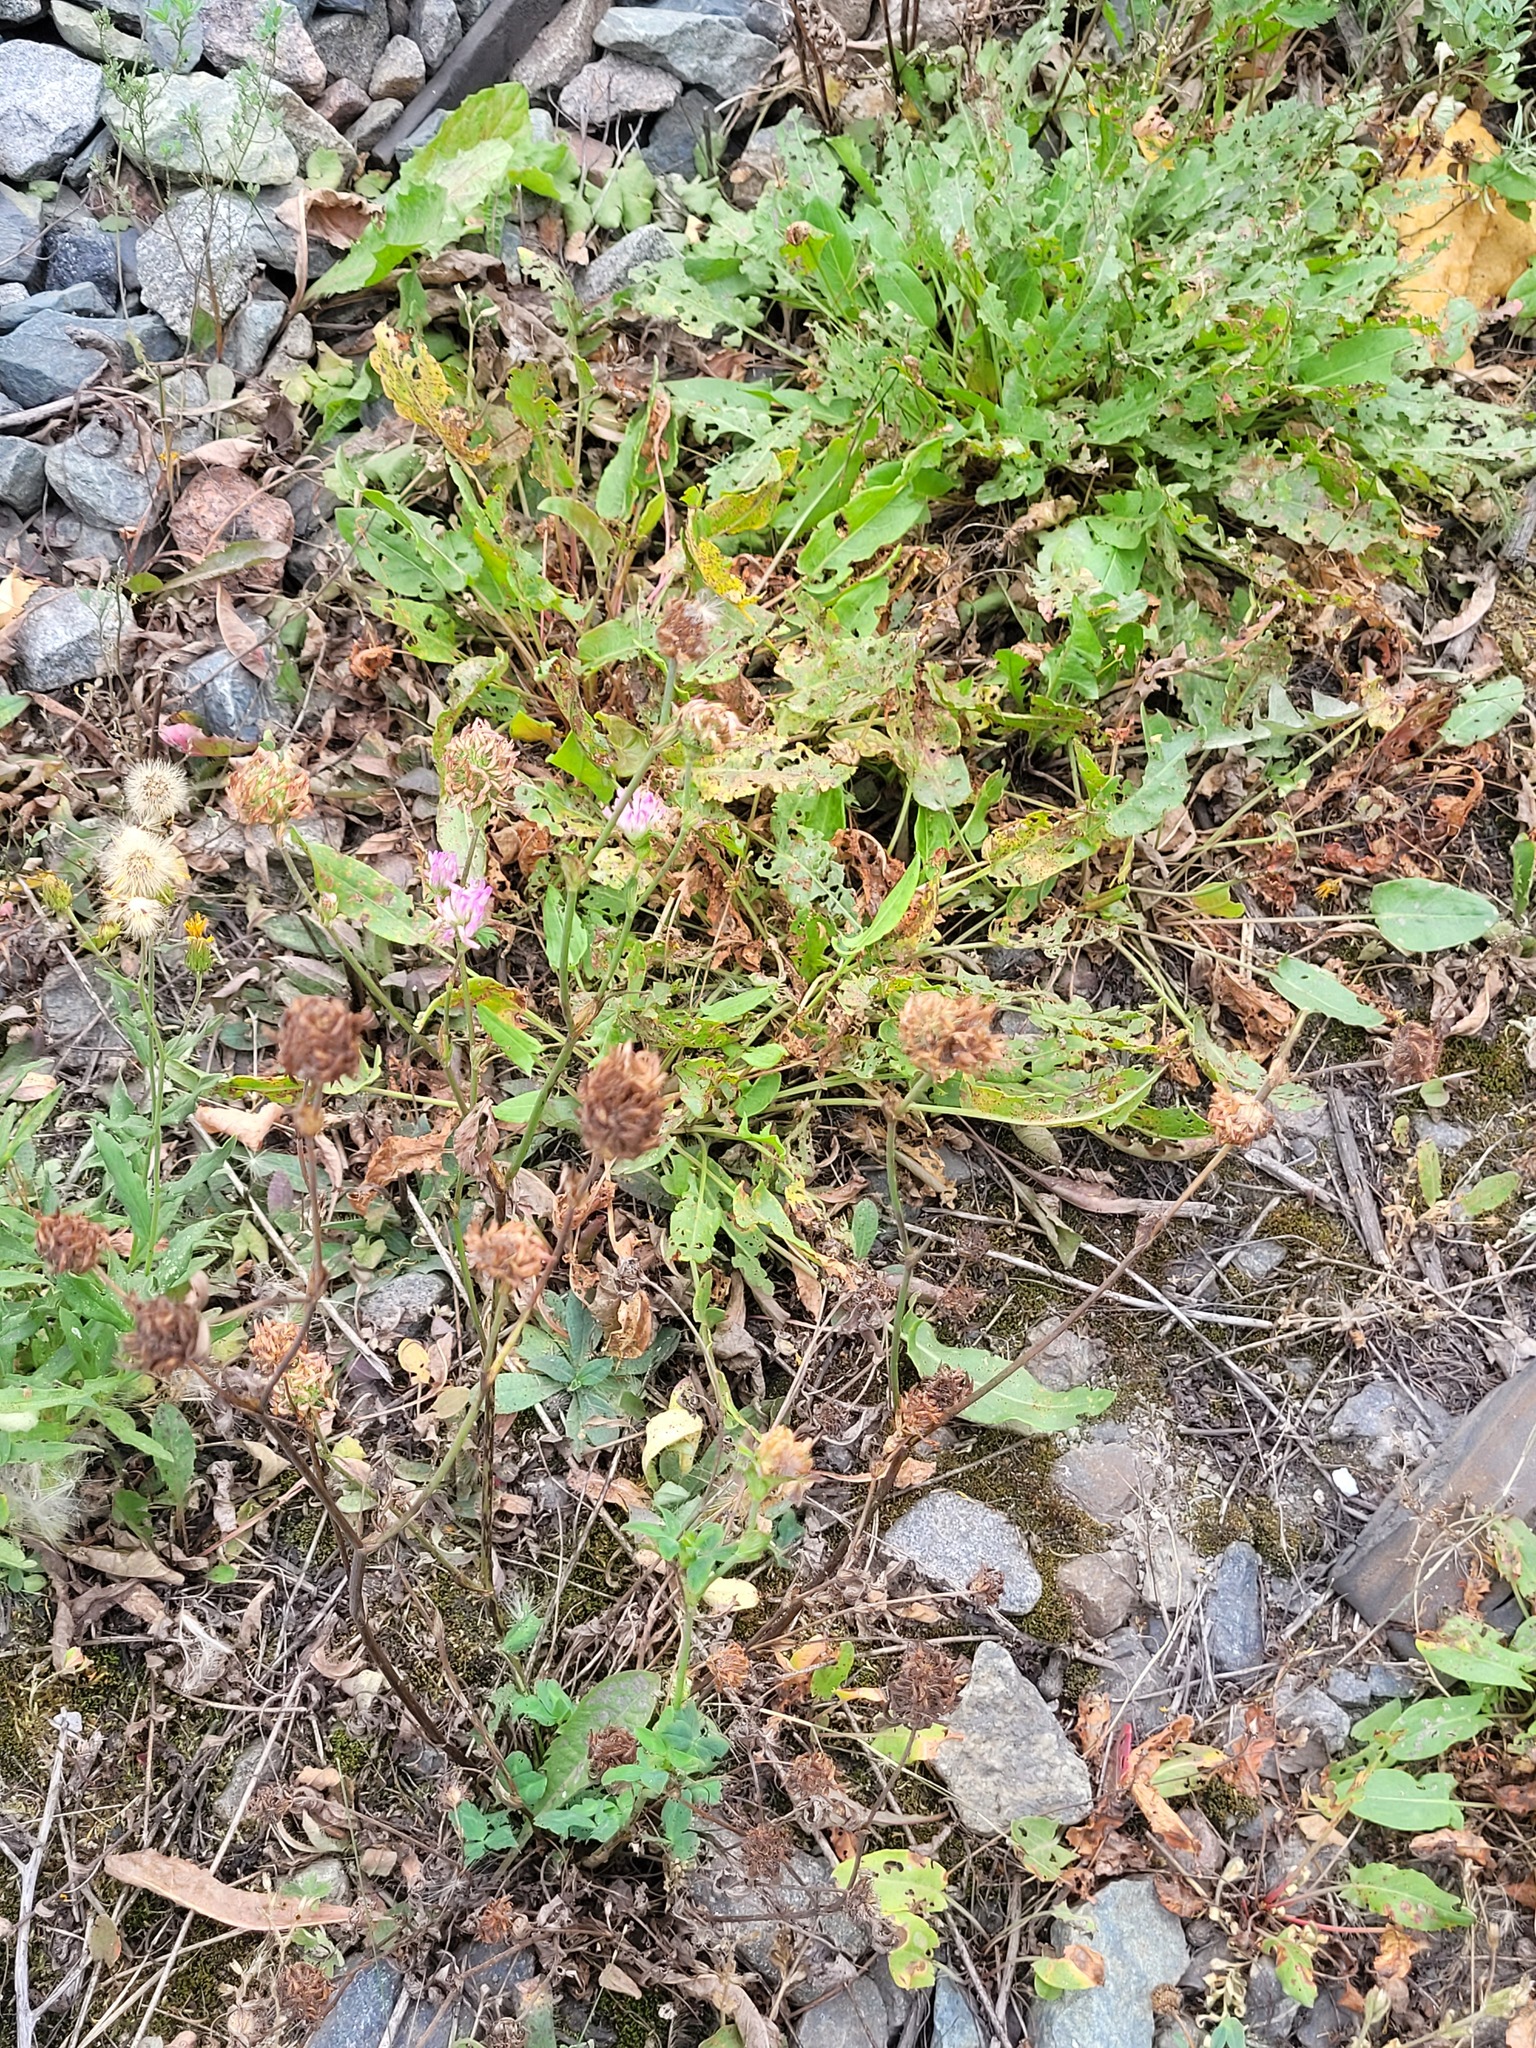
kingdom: Plantae
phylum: Tracheophyta
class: Magnoliopsida
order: Fabales
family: Fabaceae
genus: Trifolium
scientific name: Trifolium pratense
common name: Red clover
